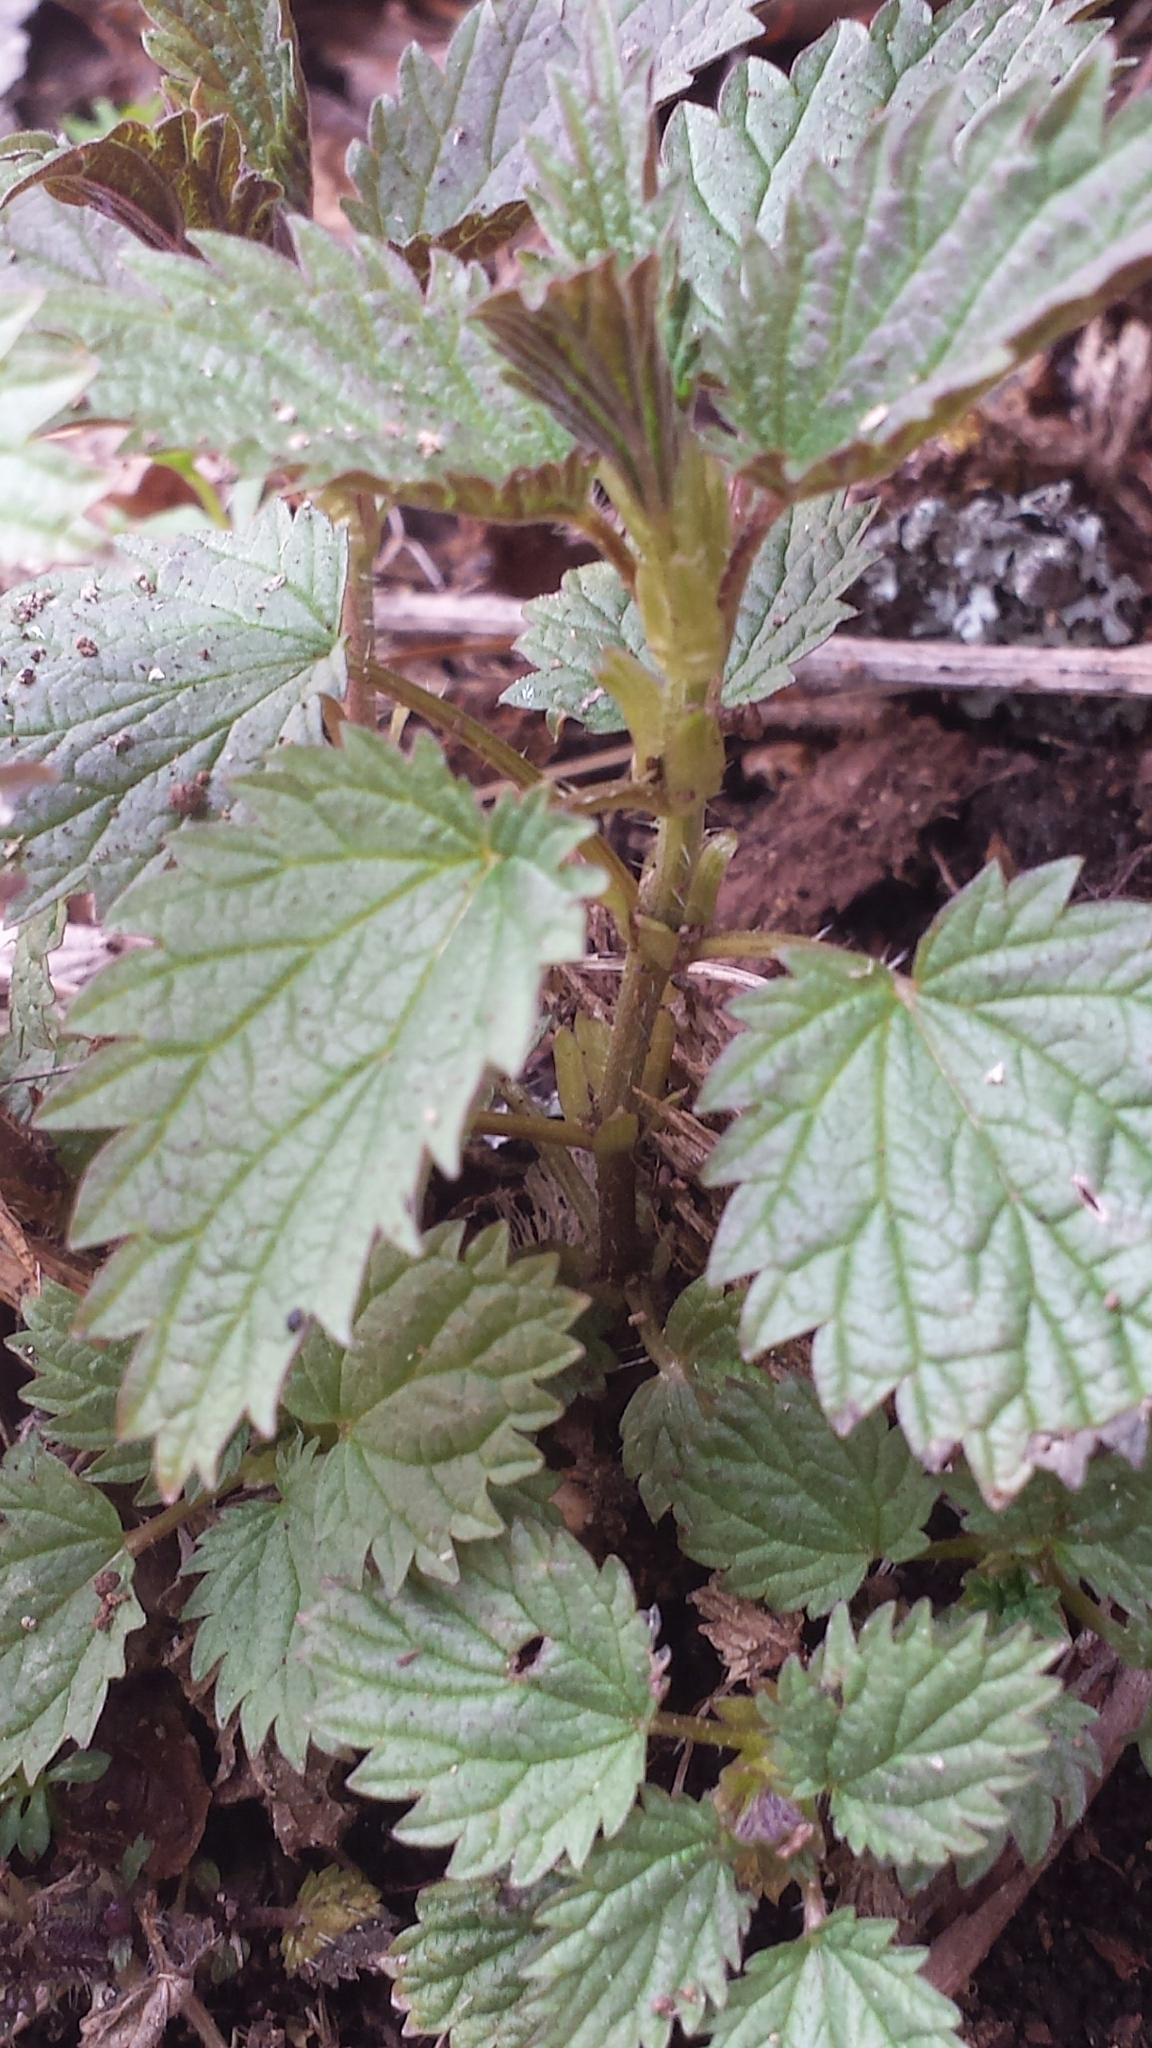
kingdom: Plantae
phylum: Tracheophyta
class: Magnoliopsida
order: Rosales
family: Urticaceae
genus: Urtica
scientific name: Urtica dioica
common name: Common nettle
